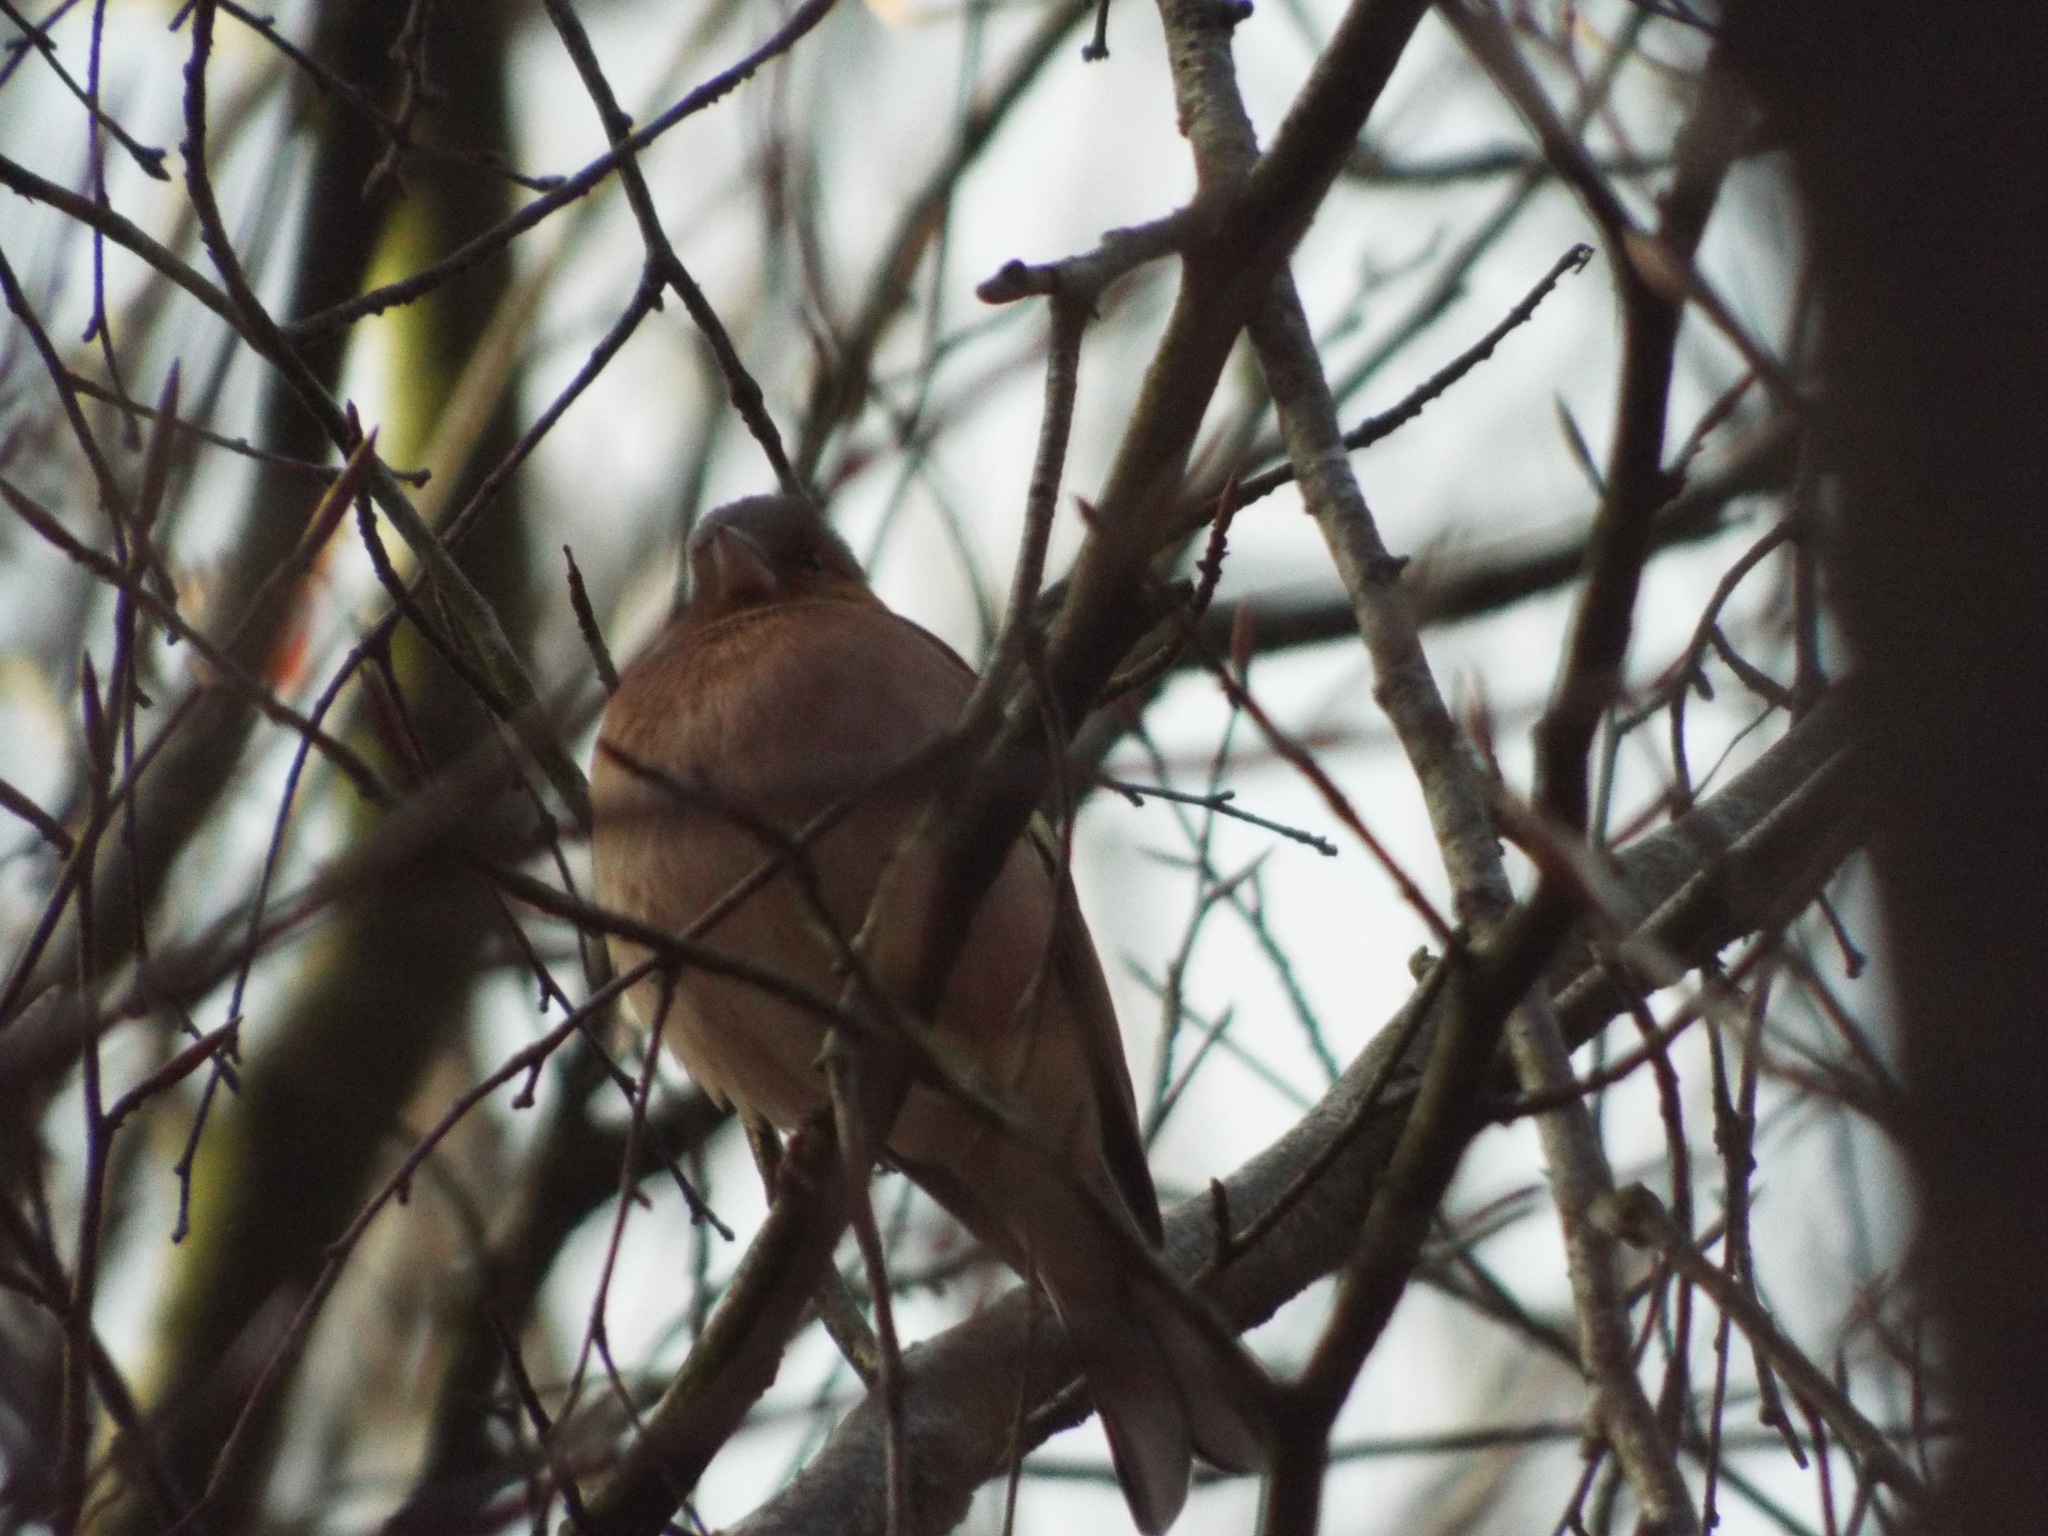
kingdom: Animalia
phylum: Chordata
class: Aves
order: Passeriformes
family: Fringillidae
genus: Fringilla
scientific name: Fringilla coelebs
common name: Common chaffinch
